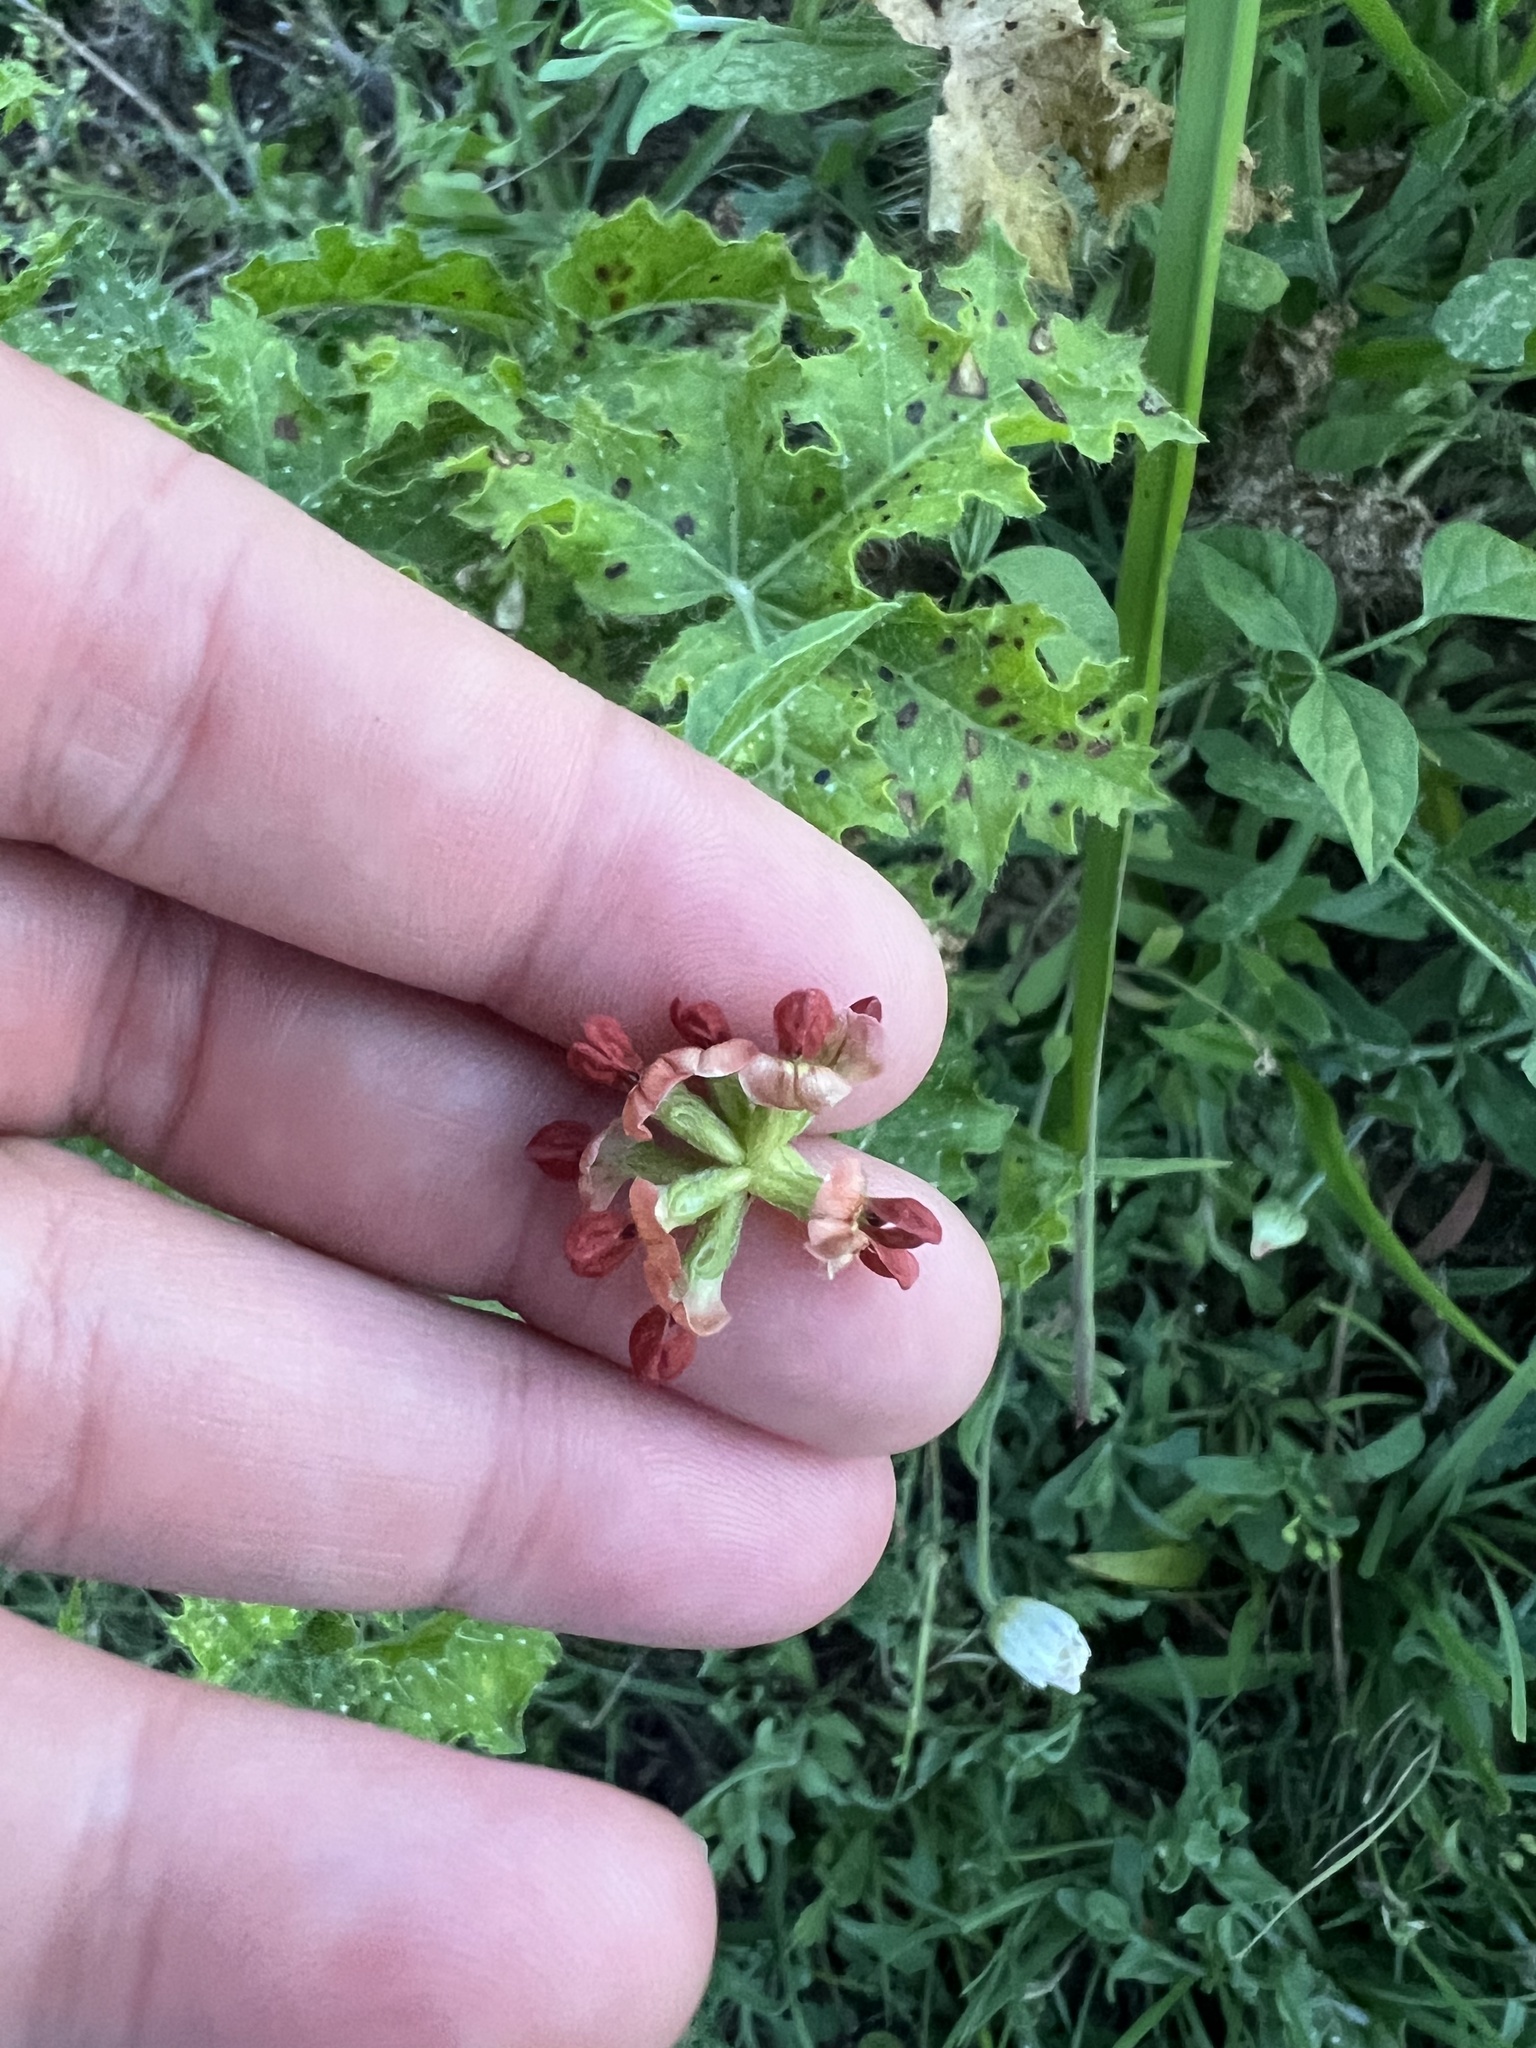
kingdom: Plantae
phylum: Tracheophyta
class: Magnoliopsida
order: Fabales
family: Fabaceae
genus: Pediomelum
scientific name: Pediomelum rhombifolium
